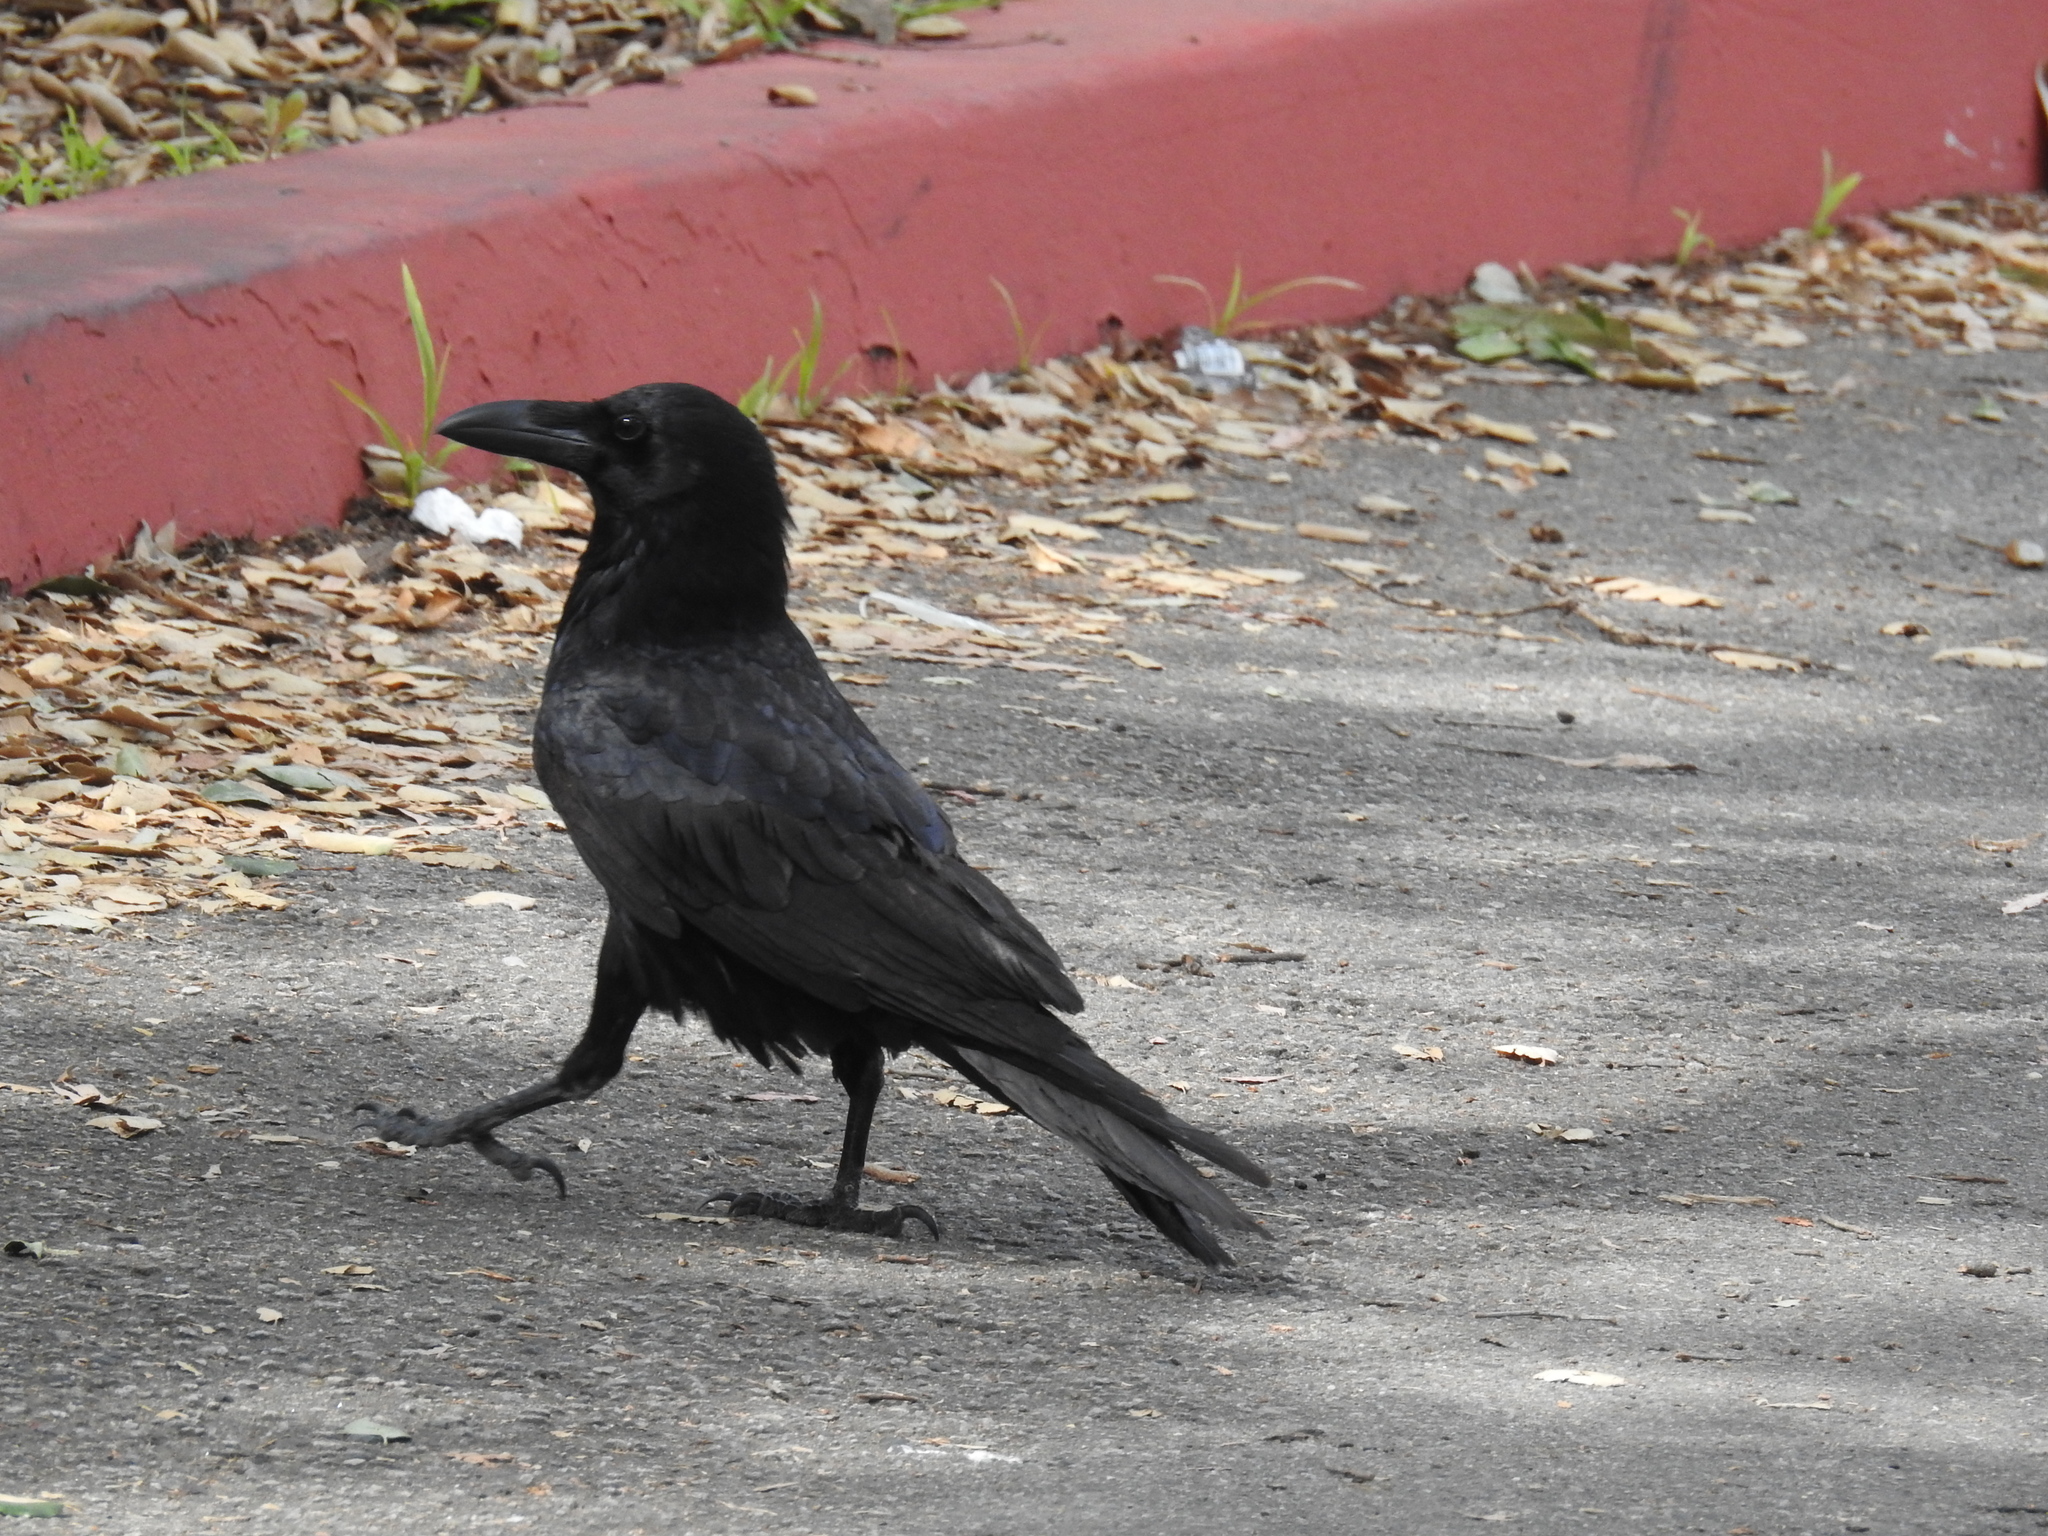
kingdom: Animalia
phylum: Chordata
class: Aves
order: Passeriformes
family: Corvidae
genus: Corvus
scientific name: Corvus corax
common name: Common raven
